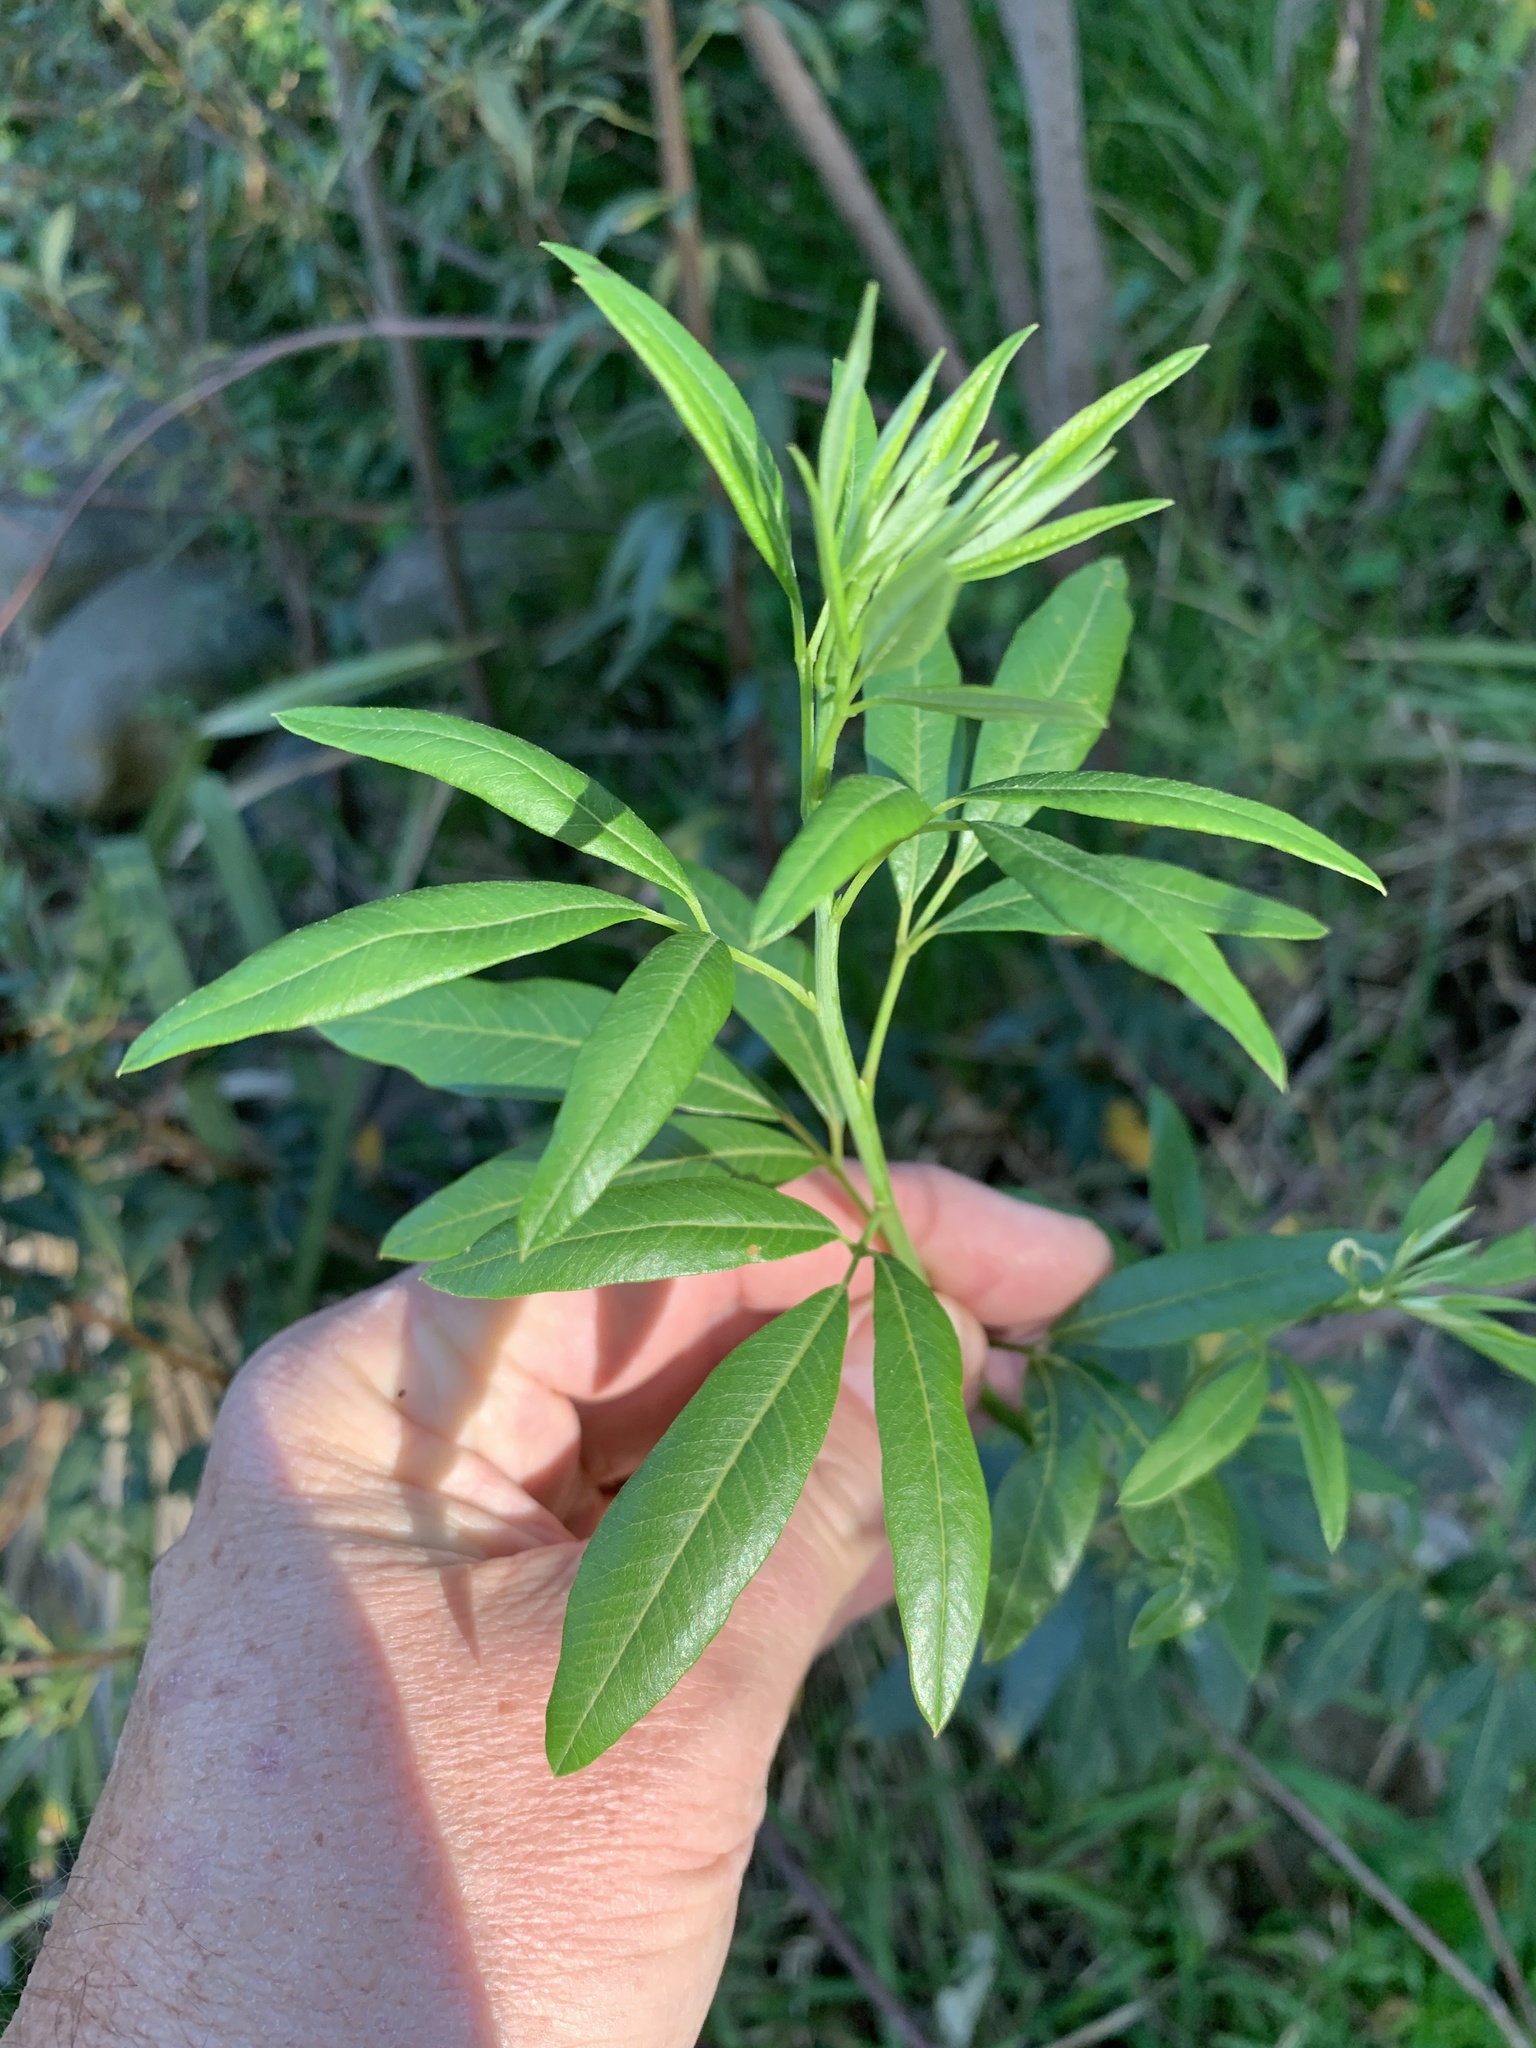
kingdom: Plantae
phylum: Tracheophyta
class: Magnoliopsida
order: Sapindales
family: Anacardiaceae
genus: Searsia
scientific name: Searsia angustifolia
